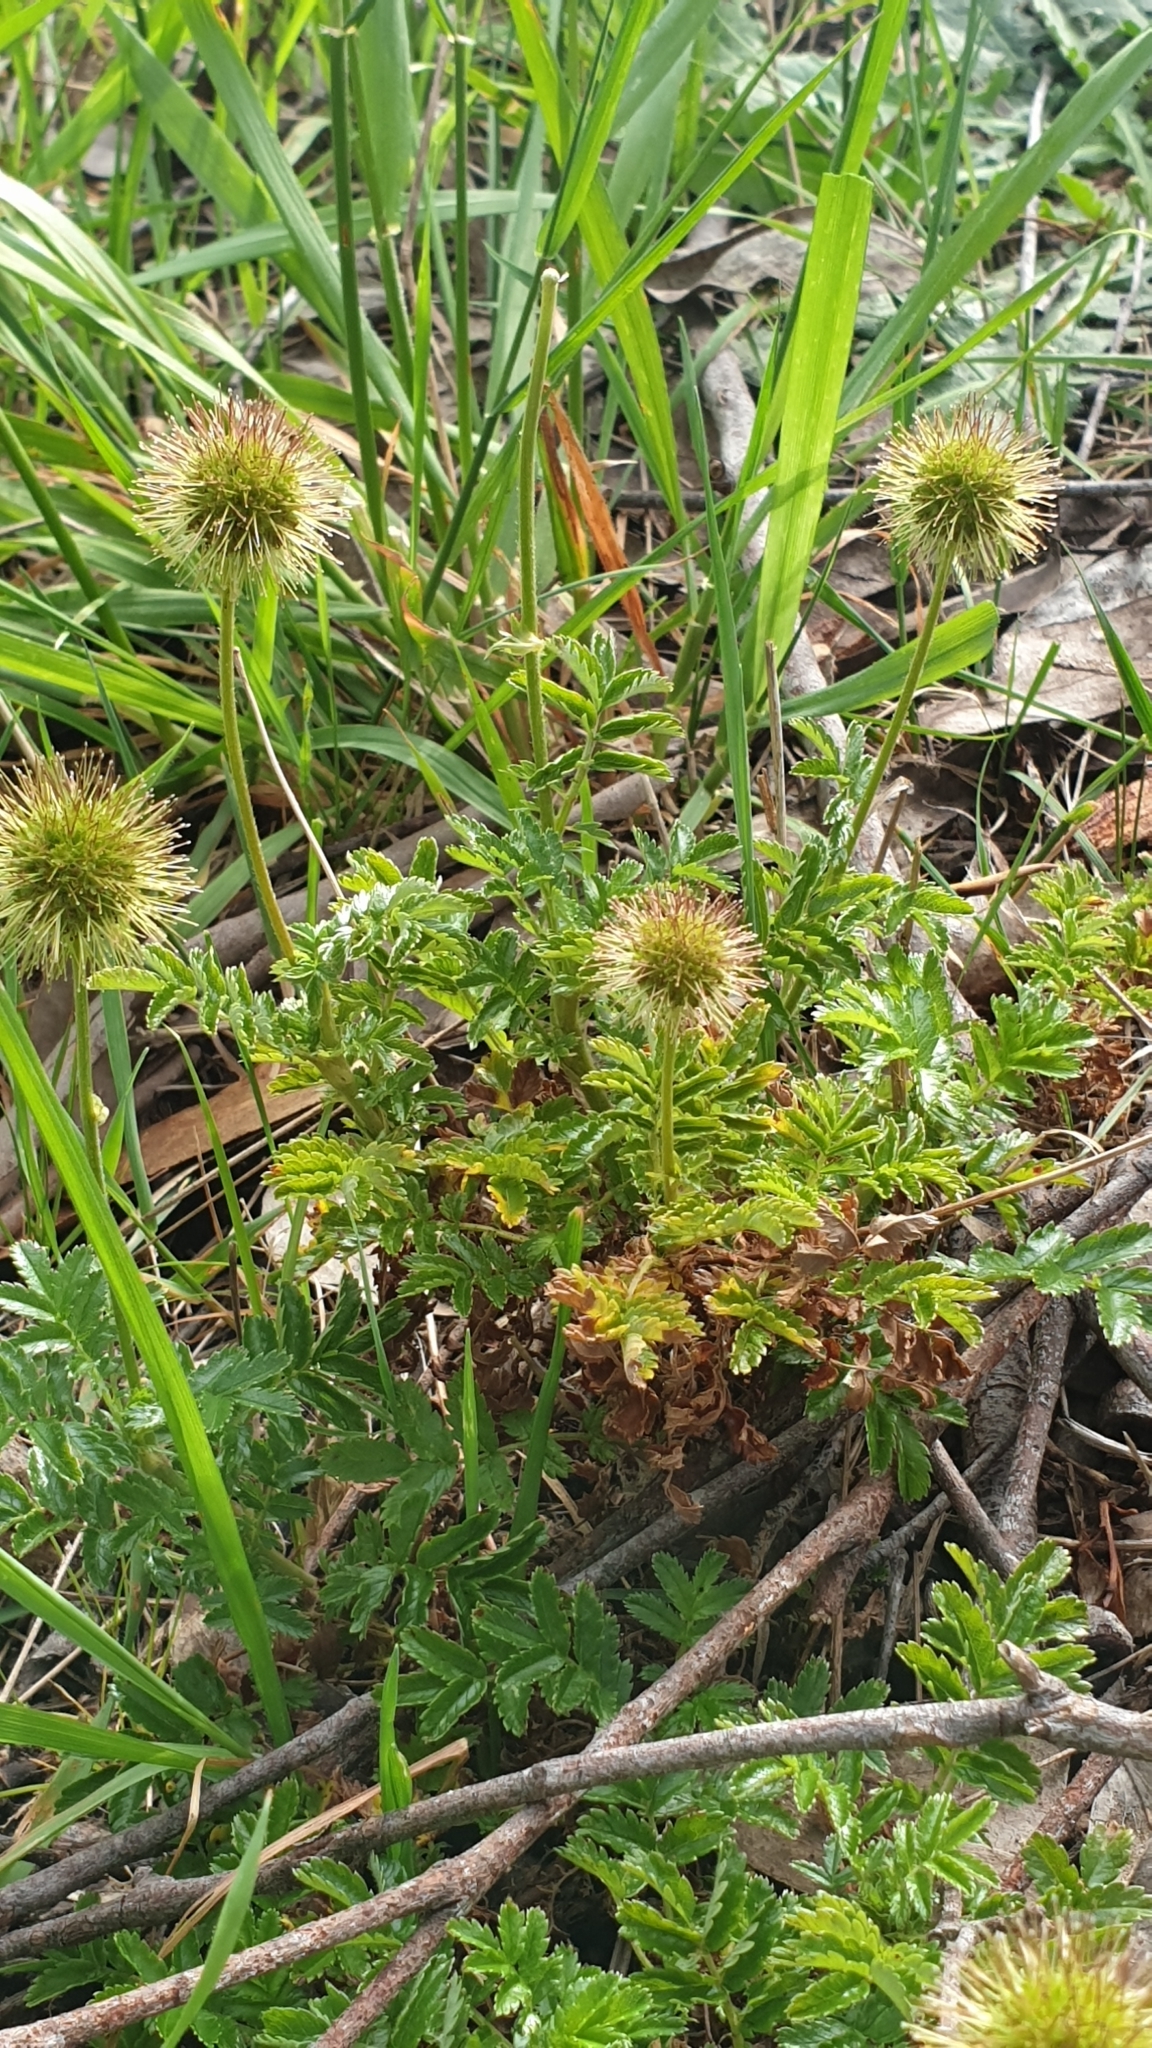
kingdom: Plantae
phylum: Tracheophyta
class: Magnoliopsida
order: Rosales
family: Rosaceae
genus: Acaena
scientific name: Acaena novae-zelandiae
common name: Pirri-pirri-bur
